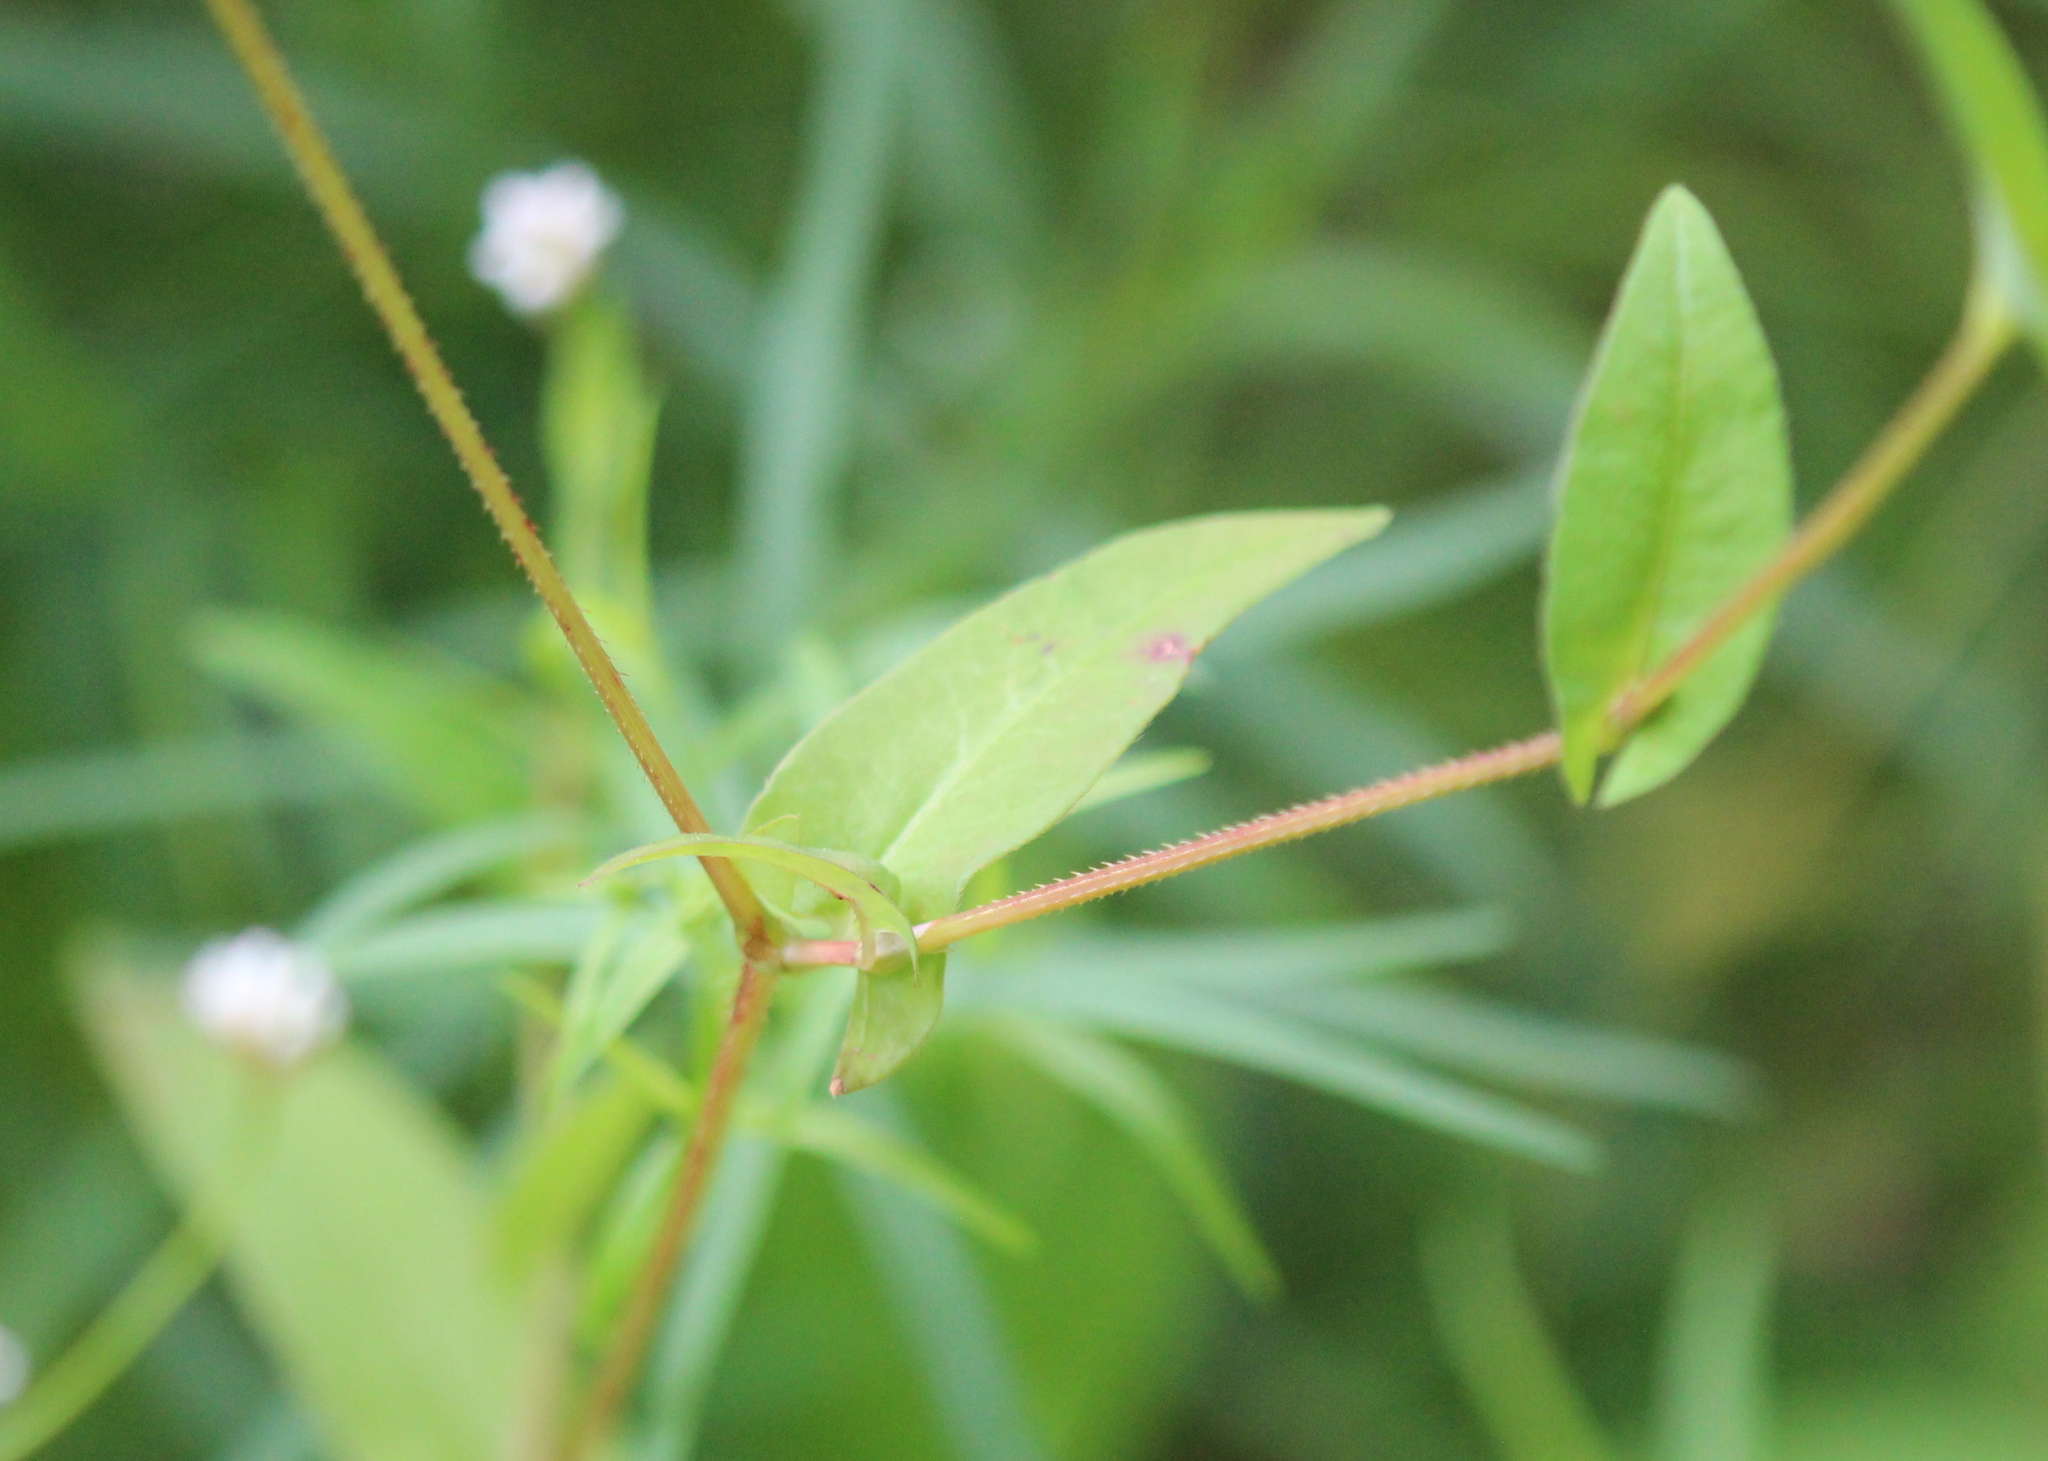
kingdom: Plantae
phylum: Tracheophyta
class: Magnoliopsida
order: Caryophyllales
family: Polygonaceae
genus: Persicaria
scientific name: Persicaria sagittata
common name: American tearthumb
